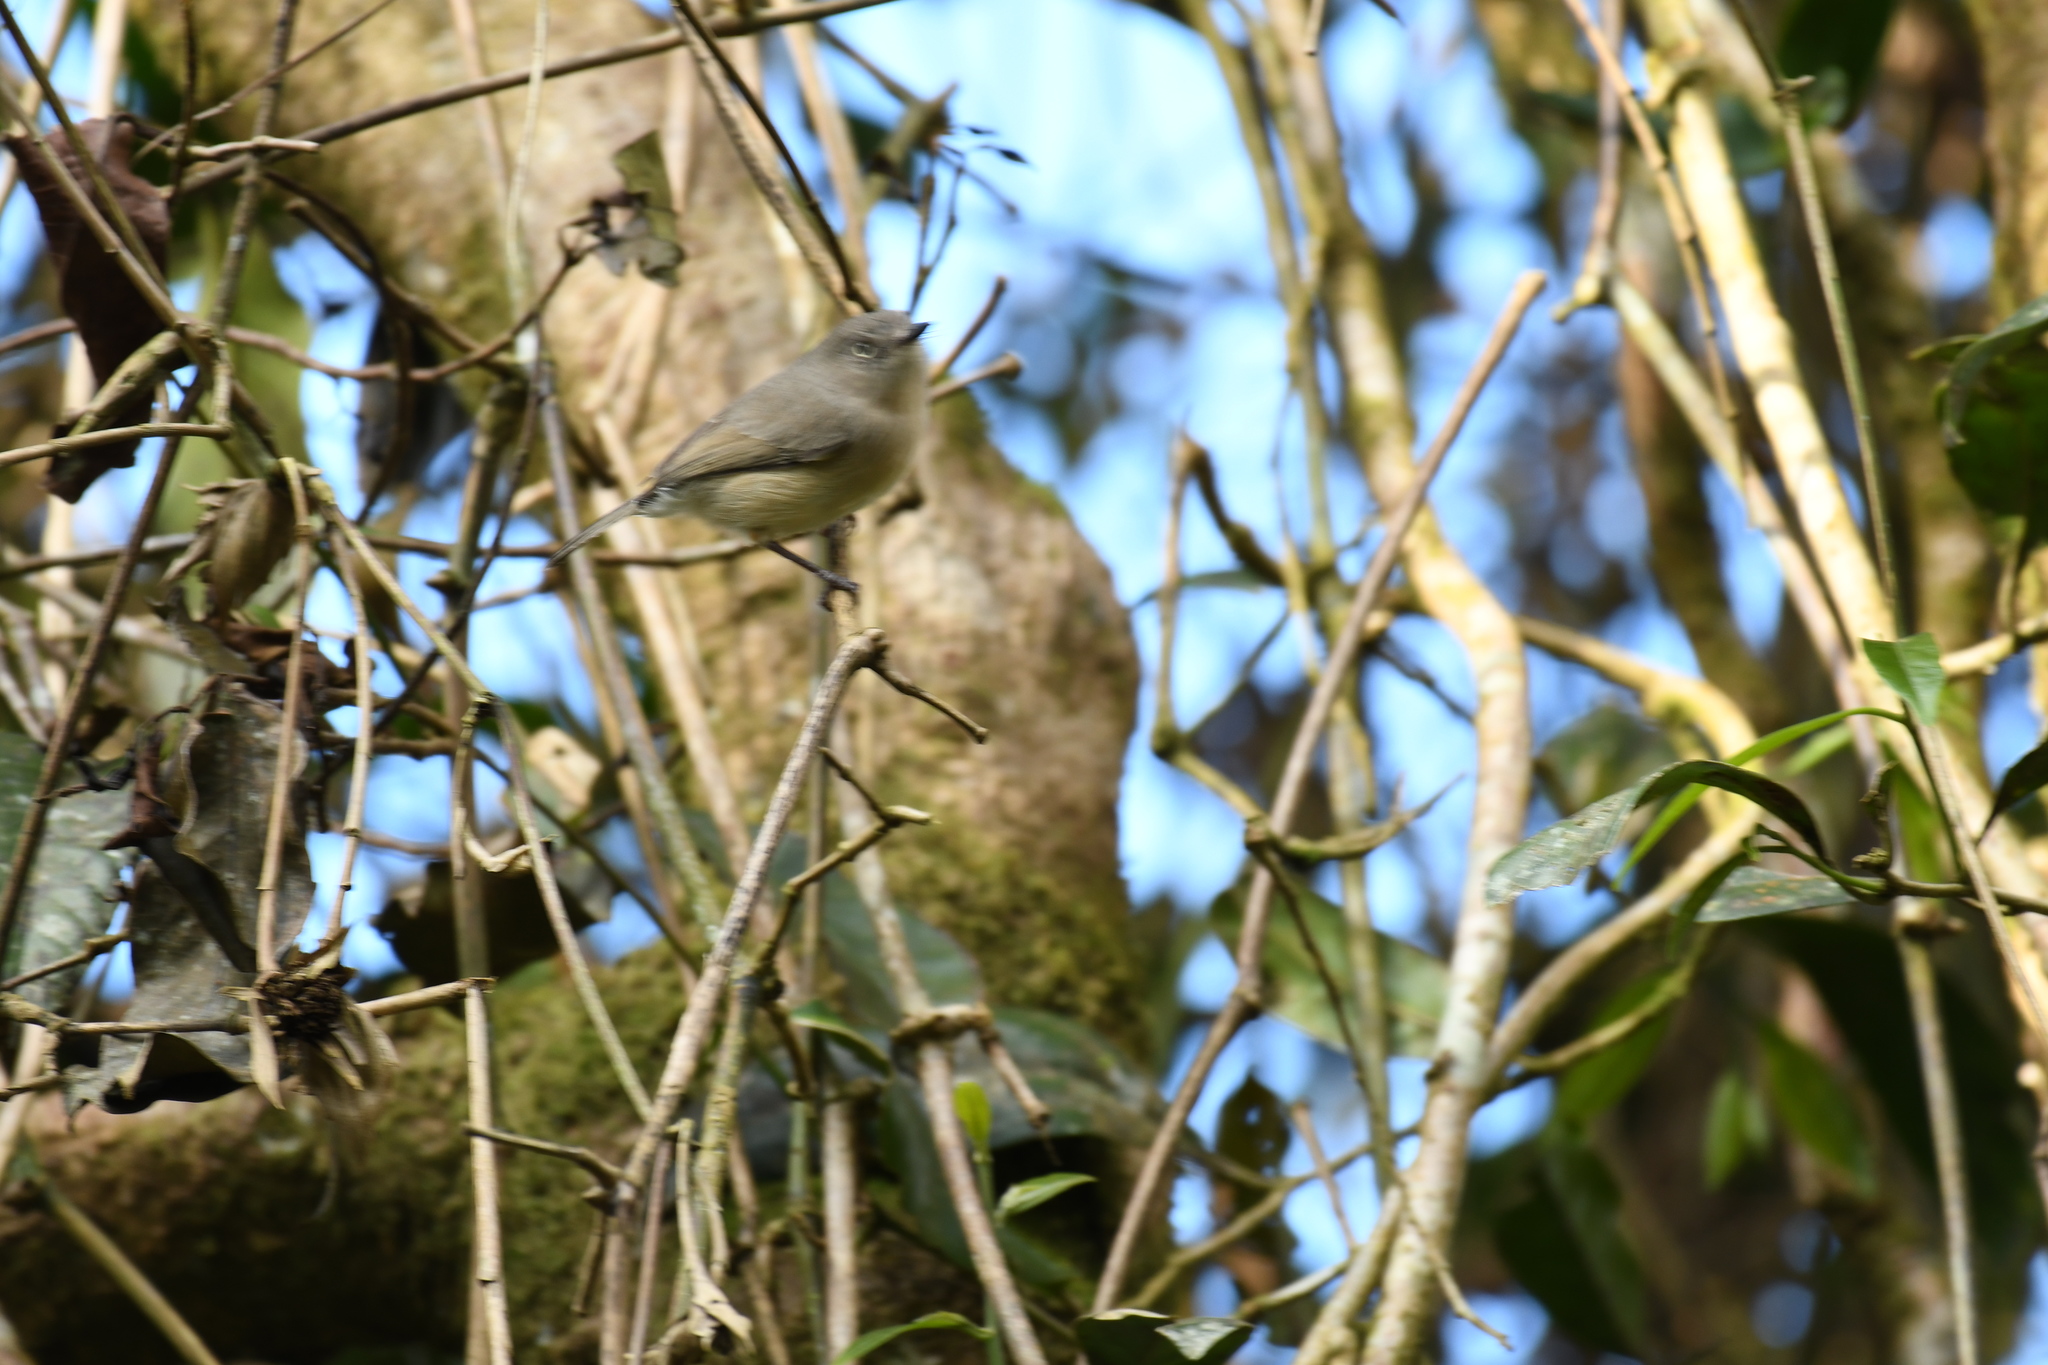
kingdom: Animalia
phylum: Chordata
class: Aves
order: Passeriformes
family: Vangidae
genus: Newtonia
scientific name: Newtonia brunneicauda
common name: Common newtonia
